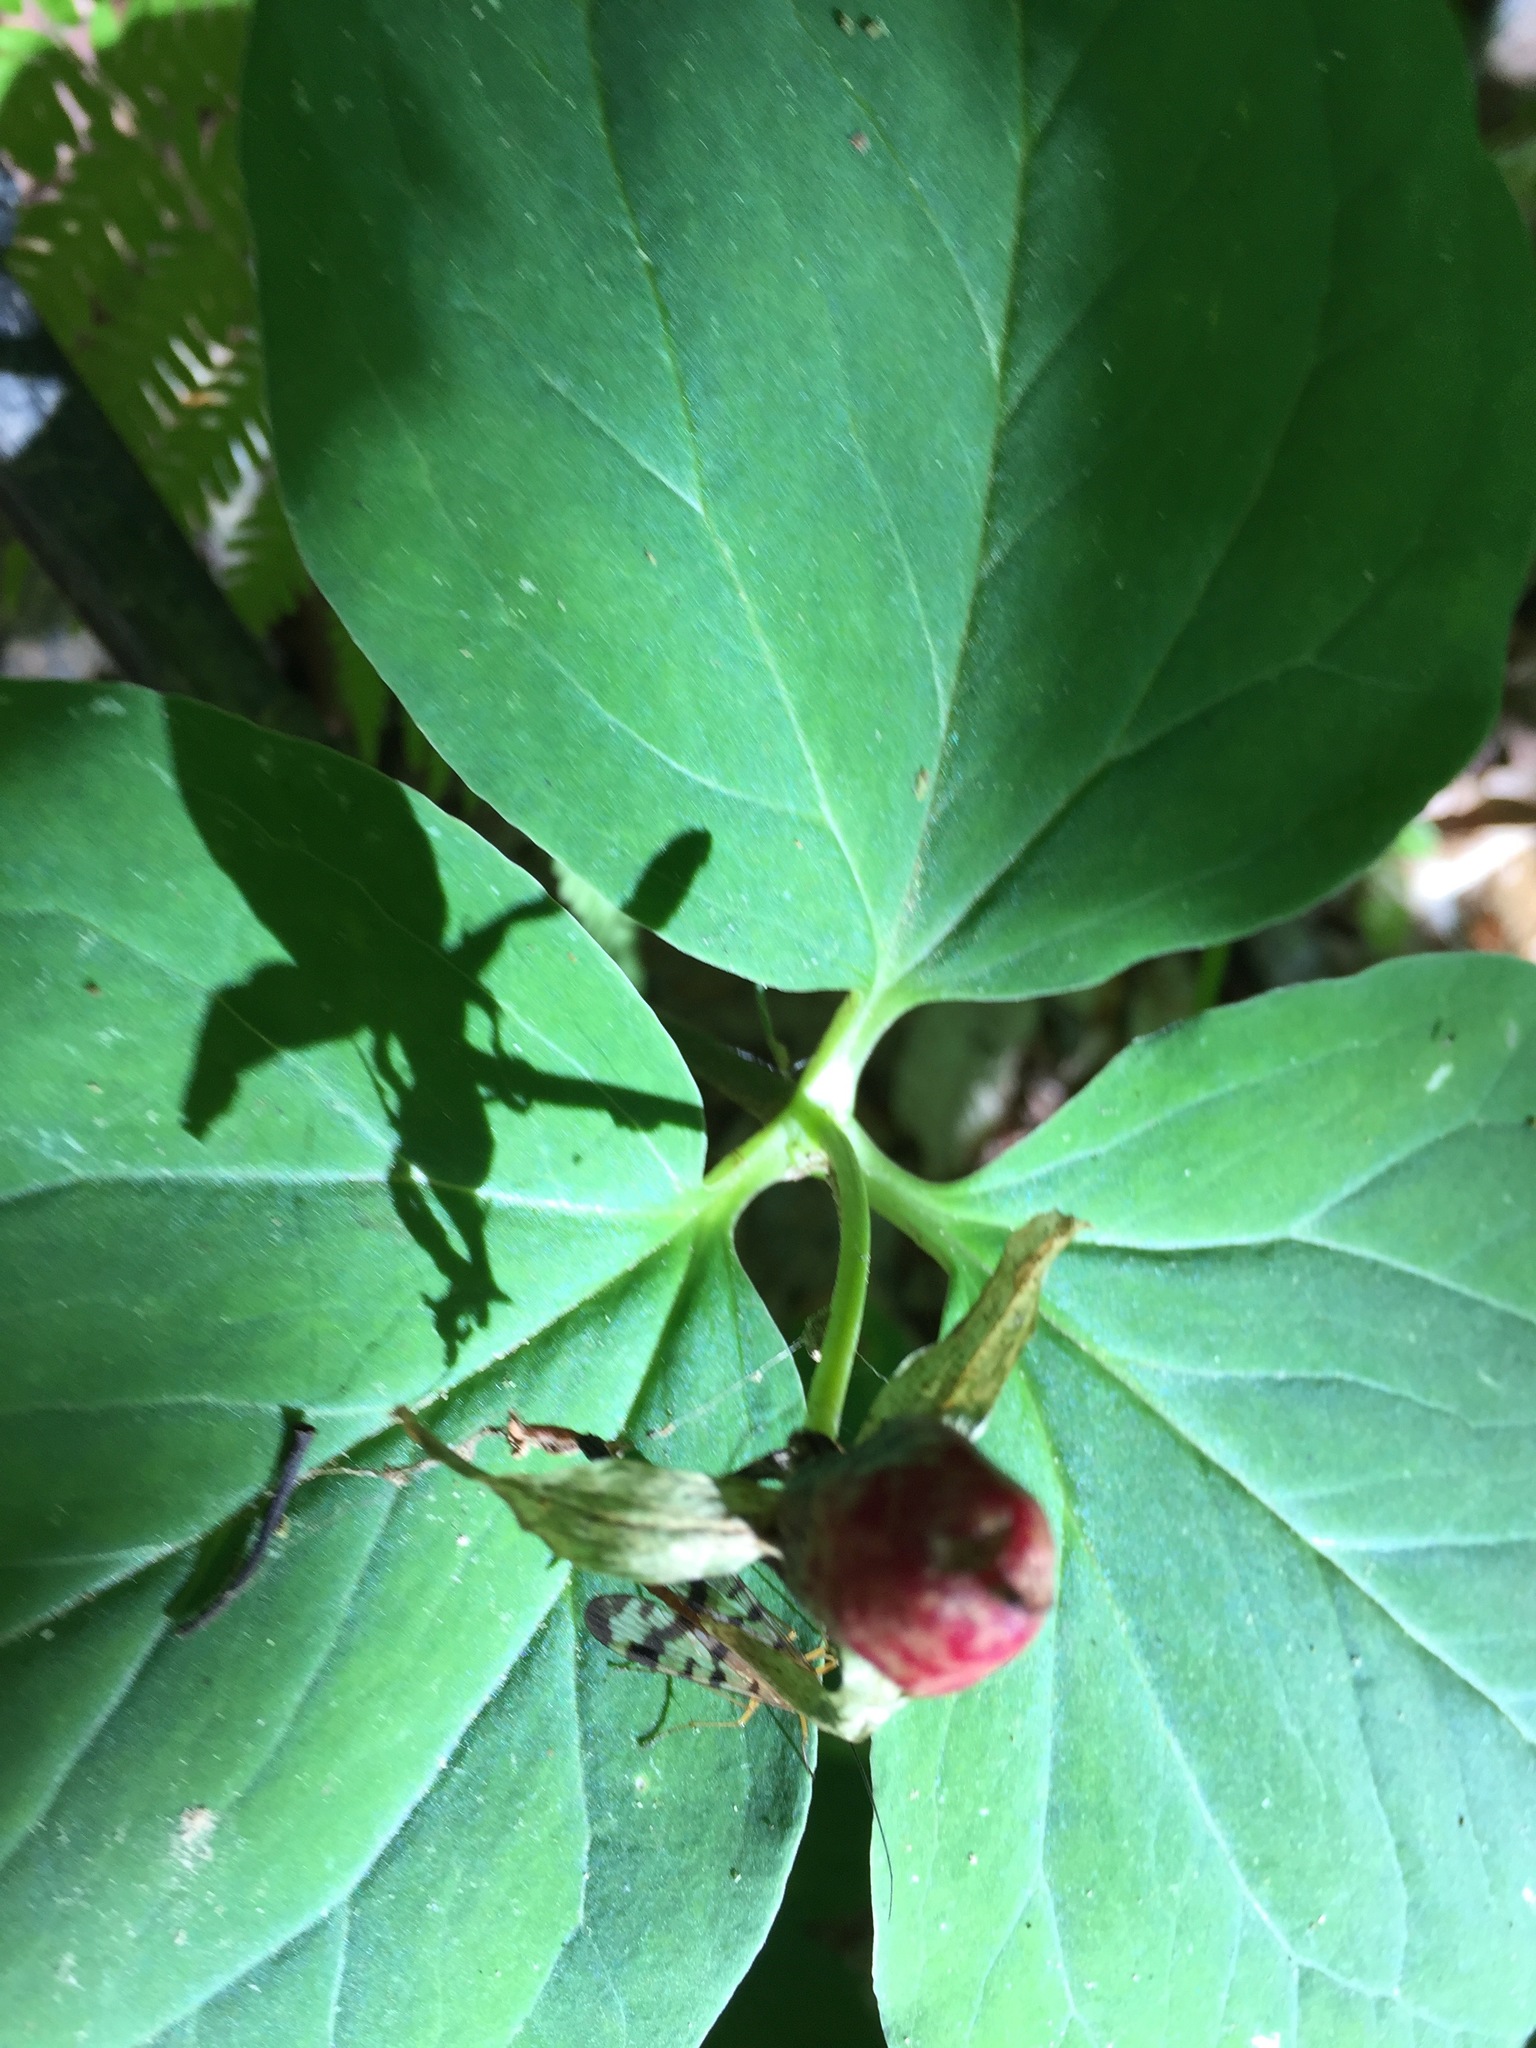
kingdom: Plantae
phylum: Tracheophyta
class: Liliopsida
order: Liliales
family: Melanthiaceae
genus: Trillium
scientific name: Trillium undulatum
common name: Paint trillium
